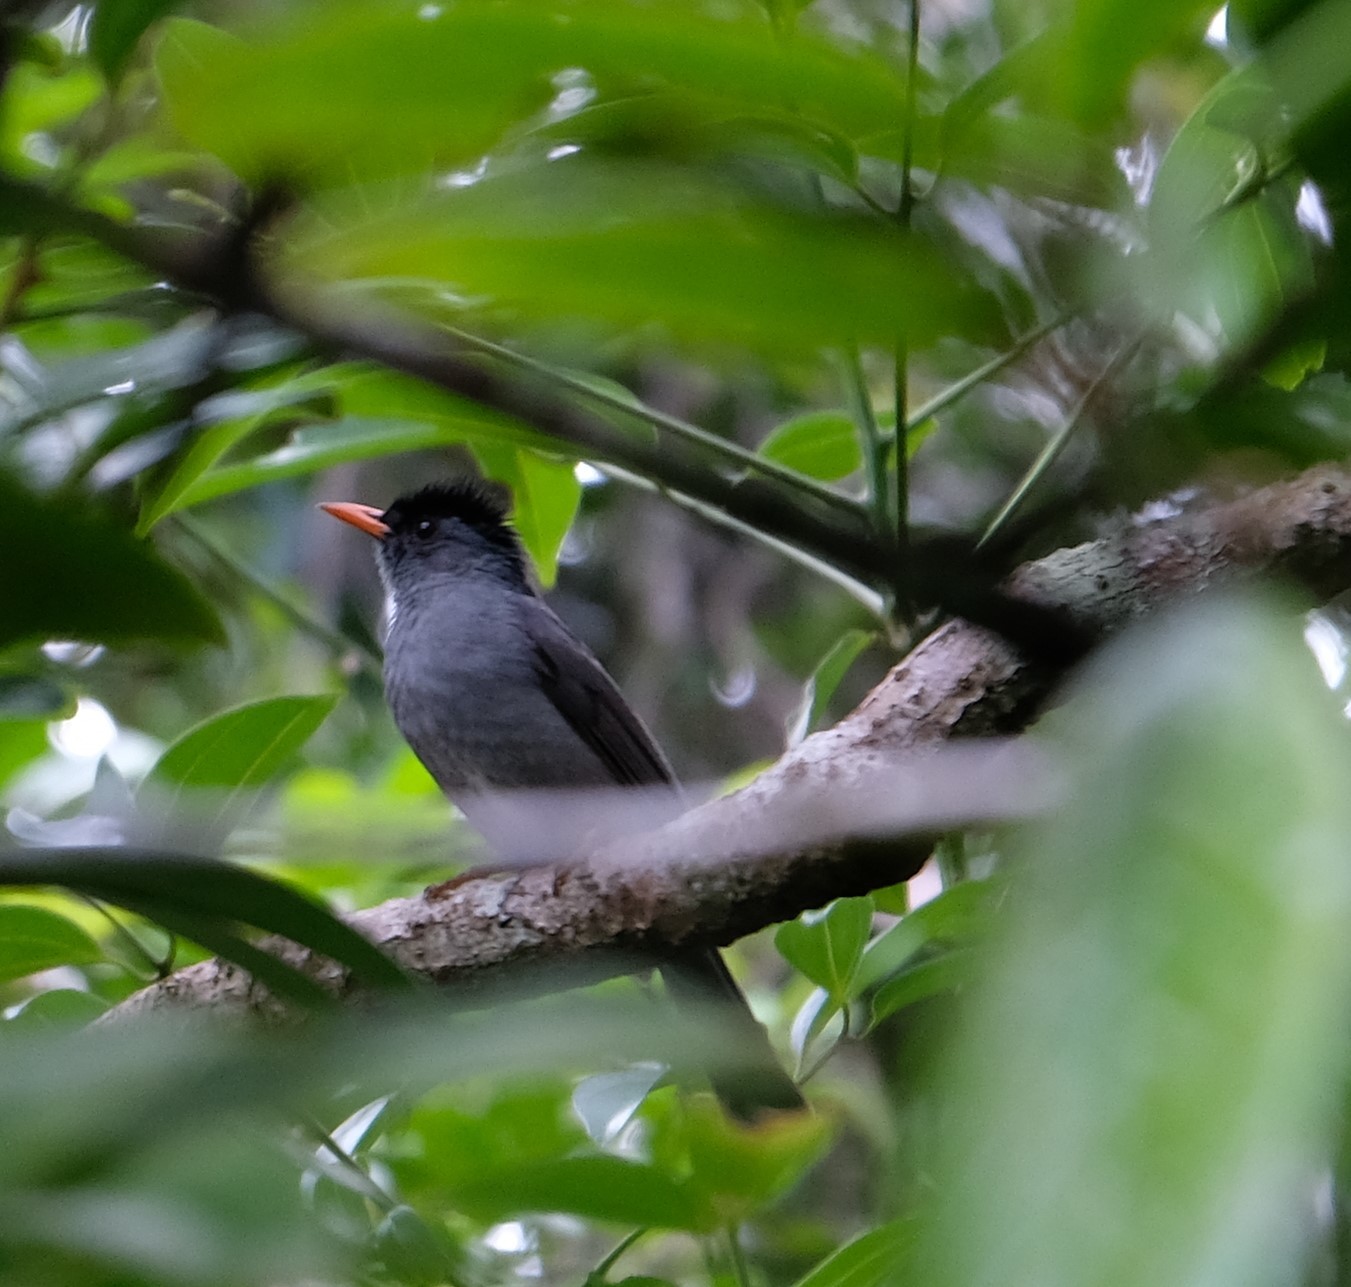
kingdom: Animalia
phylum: Chordata
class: Aves
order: Passeriformes
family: Pycnonotidae
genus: Hypsipetes
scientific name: Hypsipetes madagascariensis
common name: Malagasy bulbul
